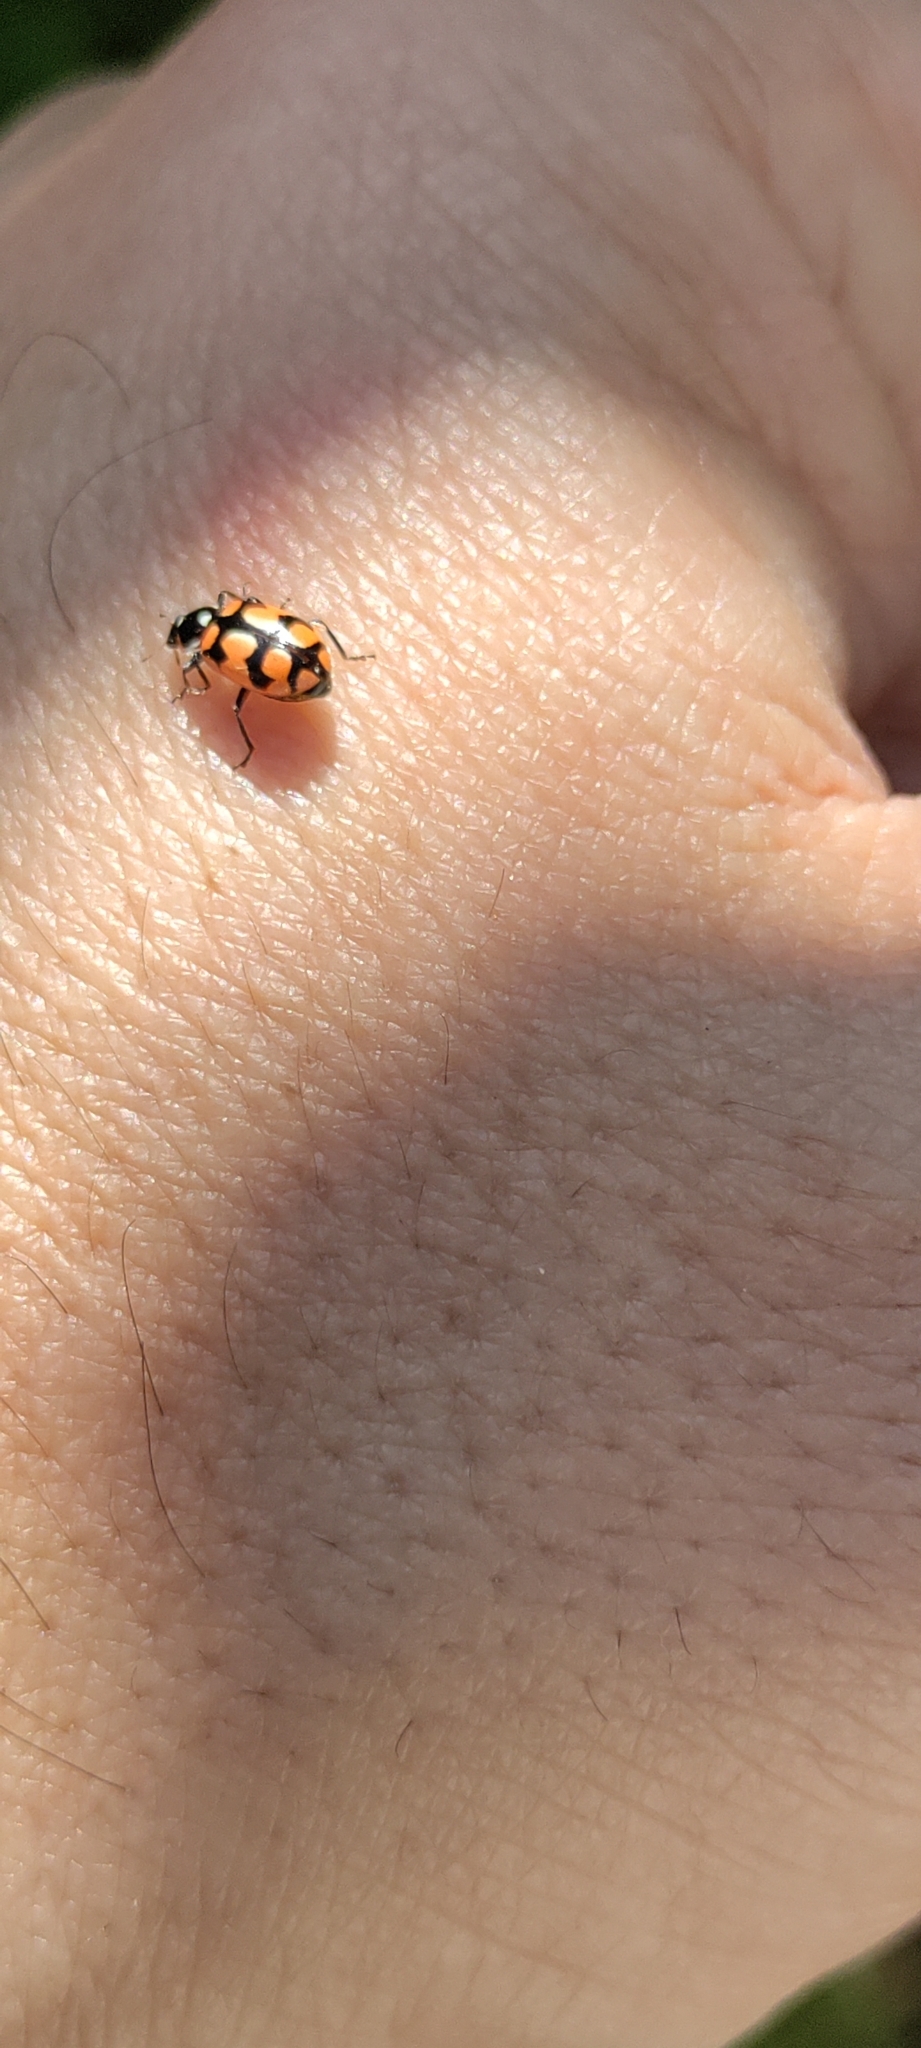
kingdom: Animalia
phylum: Arthropoda
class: Insecta
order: Coleoptera
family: Coccinellidae
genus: Eriopis
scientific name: Eriopis chilensis
